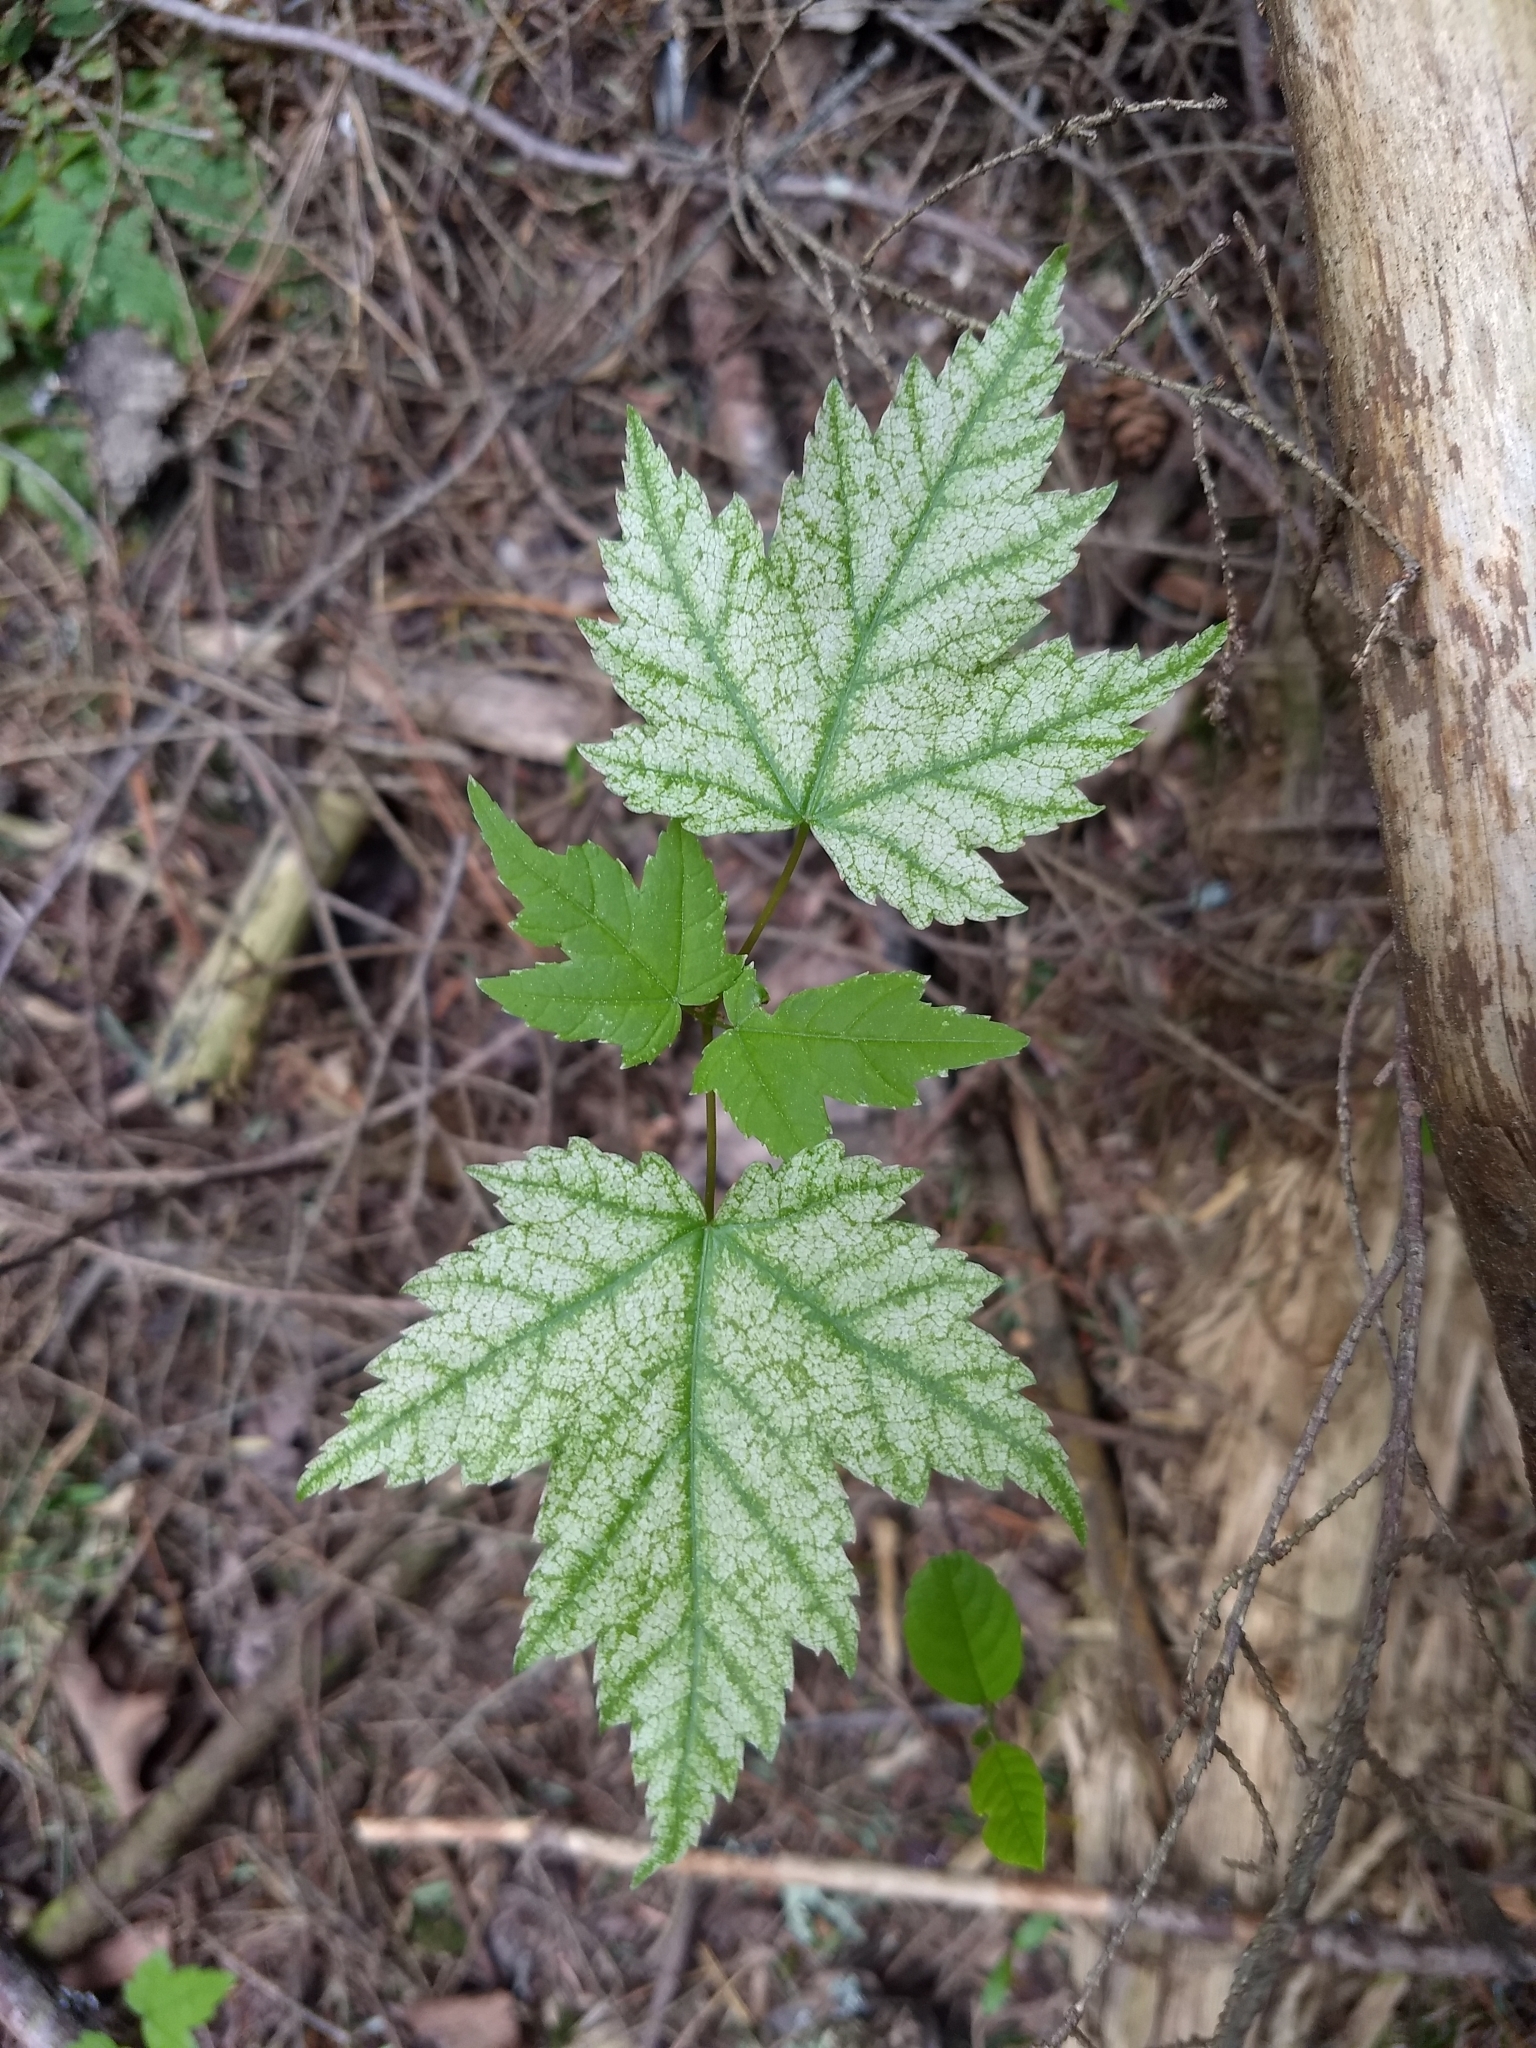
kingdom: Plantae
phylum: Tracheophyta
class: Magnoliopsida
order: Sapindales
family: Sapindaceae
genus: Acer
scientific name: Acer
